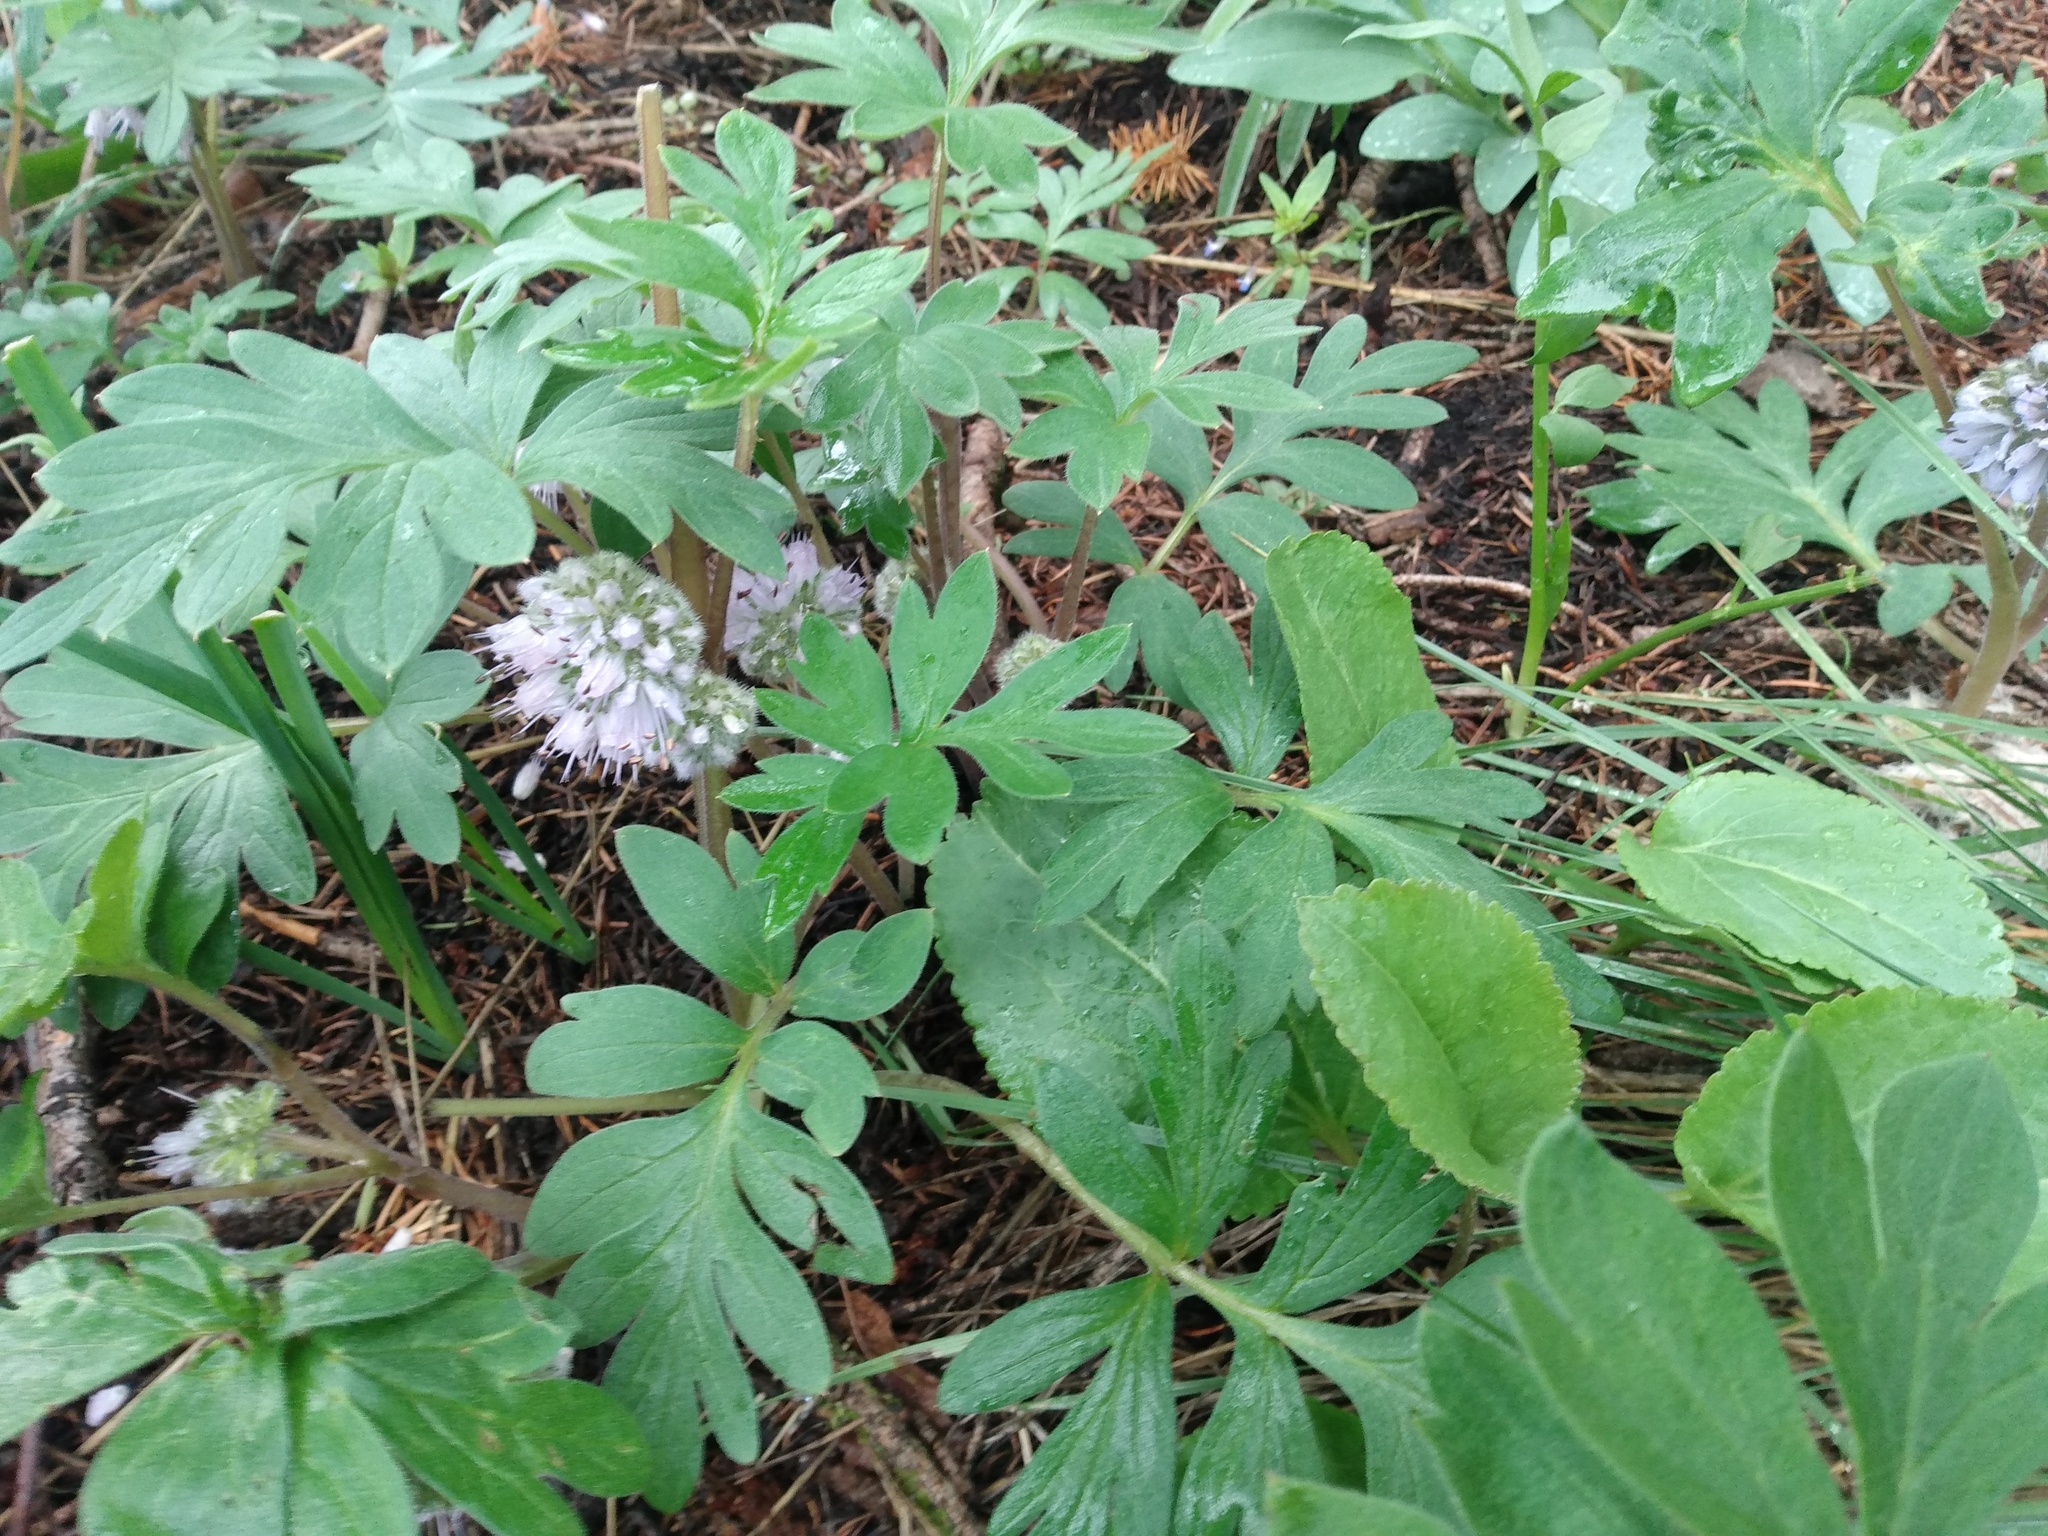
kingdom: Plantae
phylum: Tracheophyta
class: Magnoliopsida
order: Boraginales
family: Hydrophyllaceae
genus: Hydrophyllum
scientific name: Hydrophyllum capitatum
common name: Woollen-breeches
